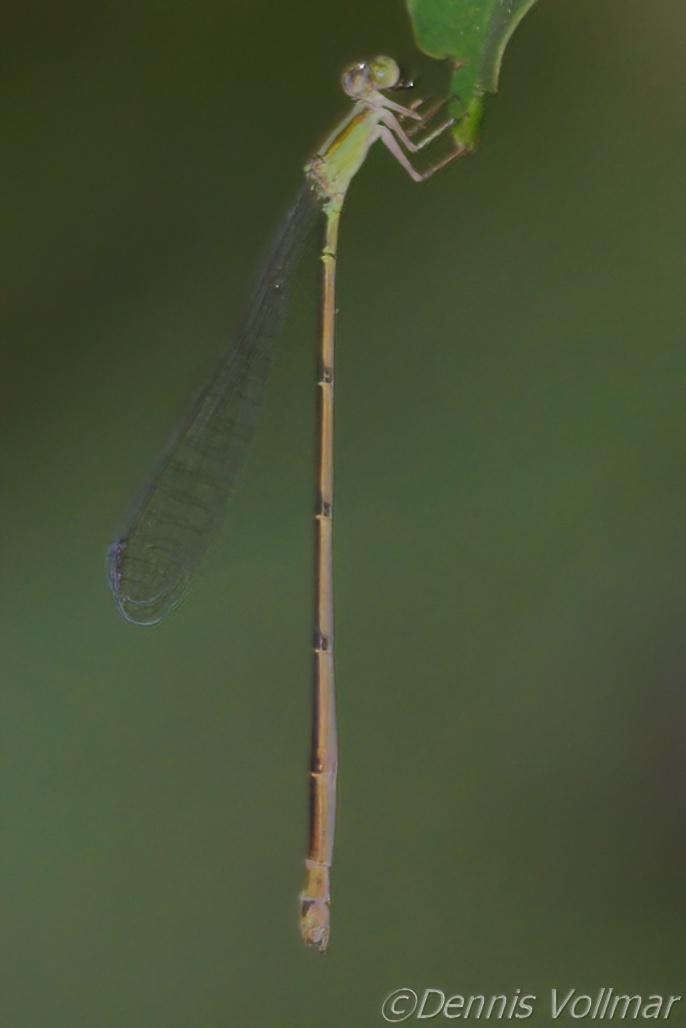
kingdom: Animalia
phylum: Arthropoda
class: Insecta
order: Odonata
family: Coenagrionidae
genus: Leptobasis
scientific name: Leptobasis lucifer
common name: Lucifer swampdamsel
